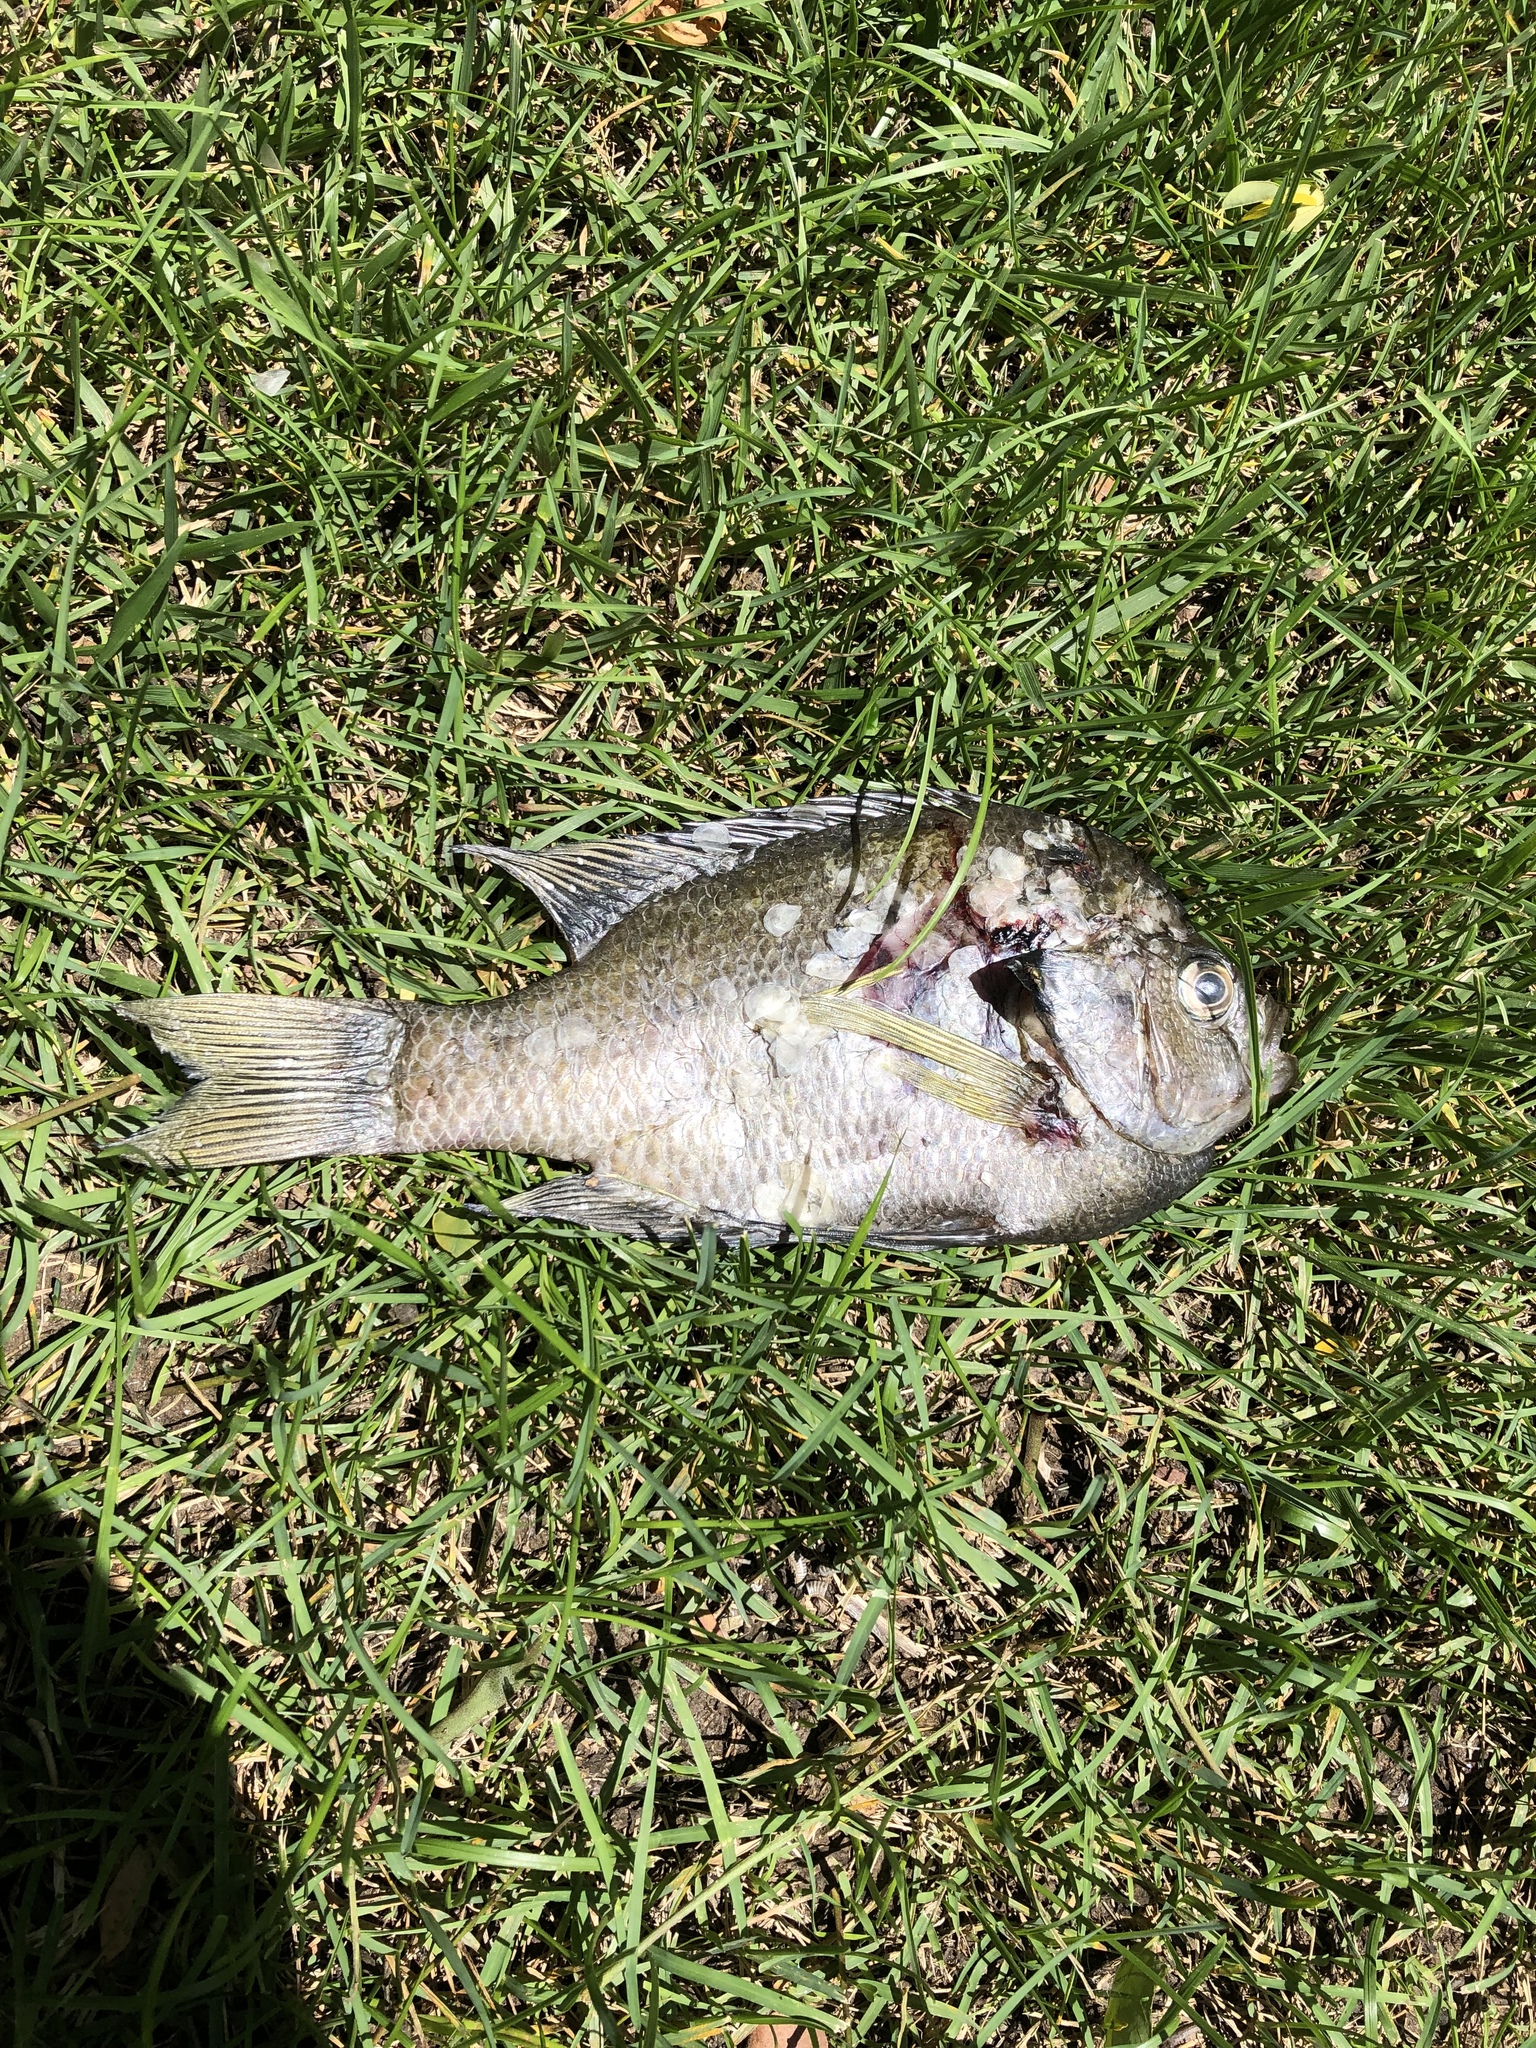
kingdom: Animalia
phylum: Chordata
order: Perciformes
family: Centrarchidae
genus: Lepomis
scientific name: Lepomis macrochirus
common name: Bluegill
